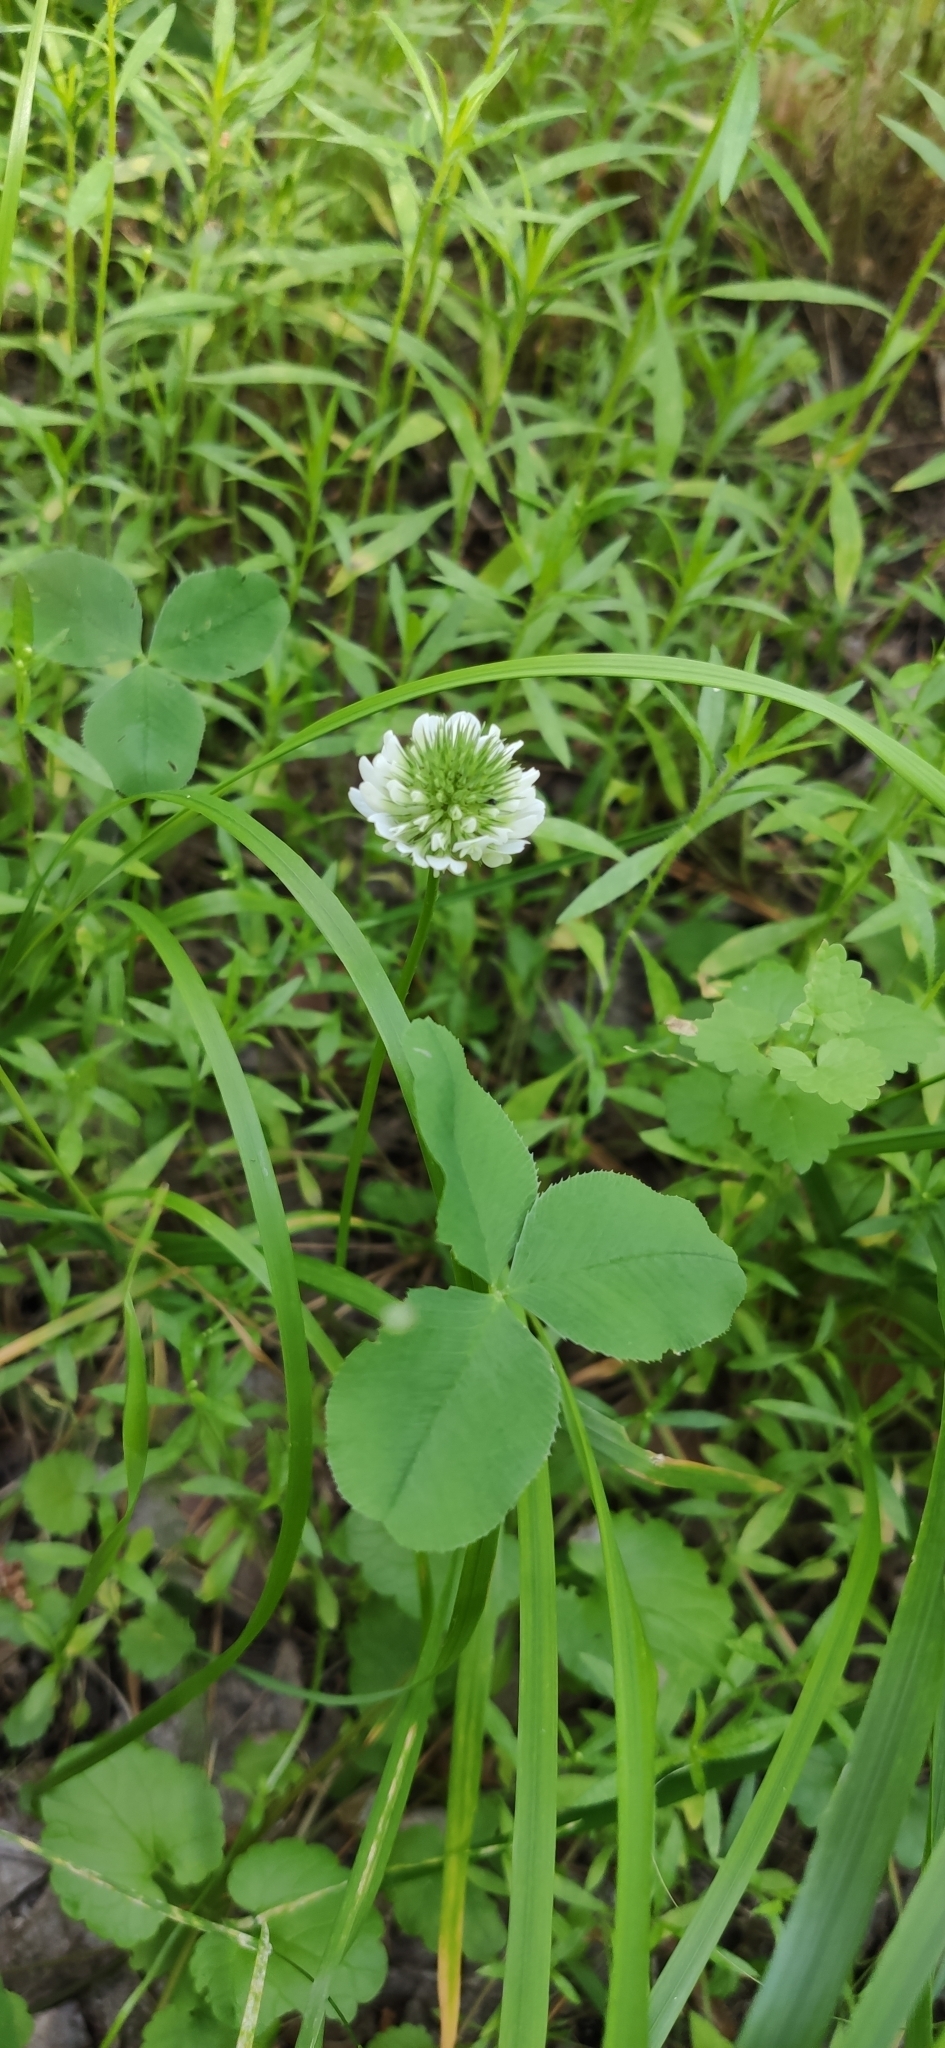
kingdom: Plantae
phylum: Tracheophyta
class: Magnoliopsida
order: Fabales
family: Fabaceae
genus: Trifolium
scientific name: Trifolium repens
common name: White clover
